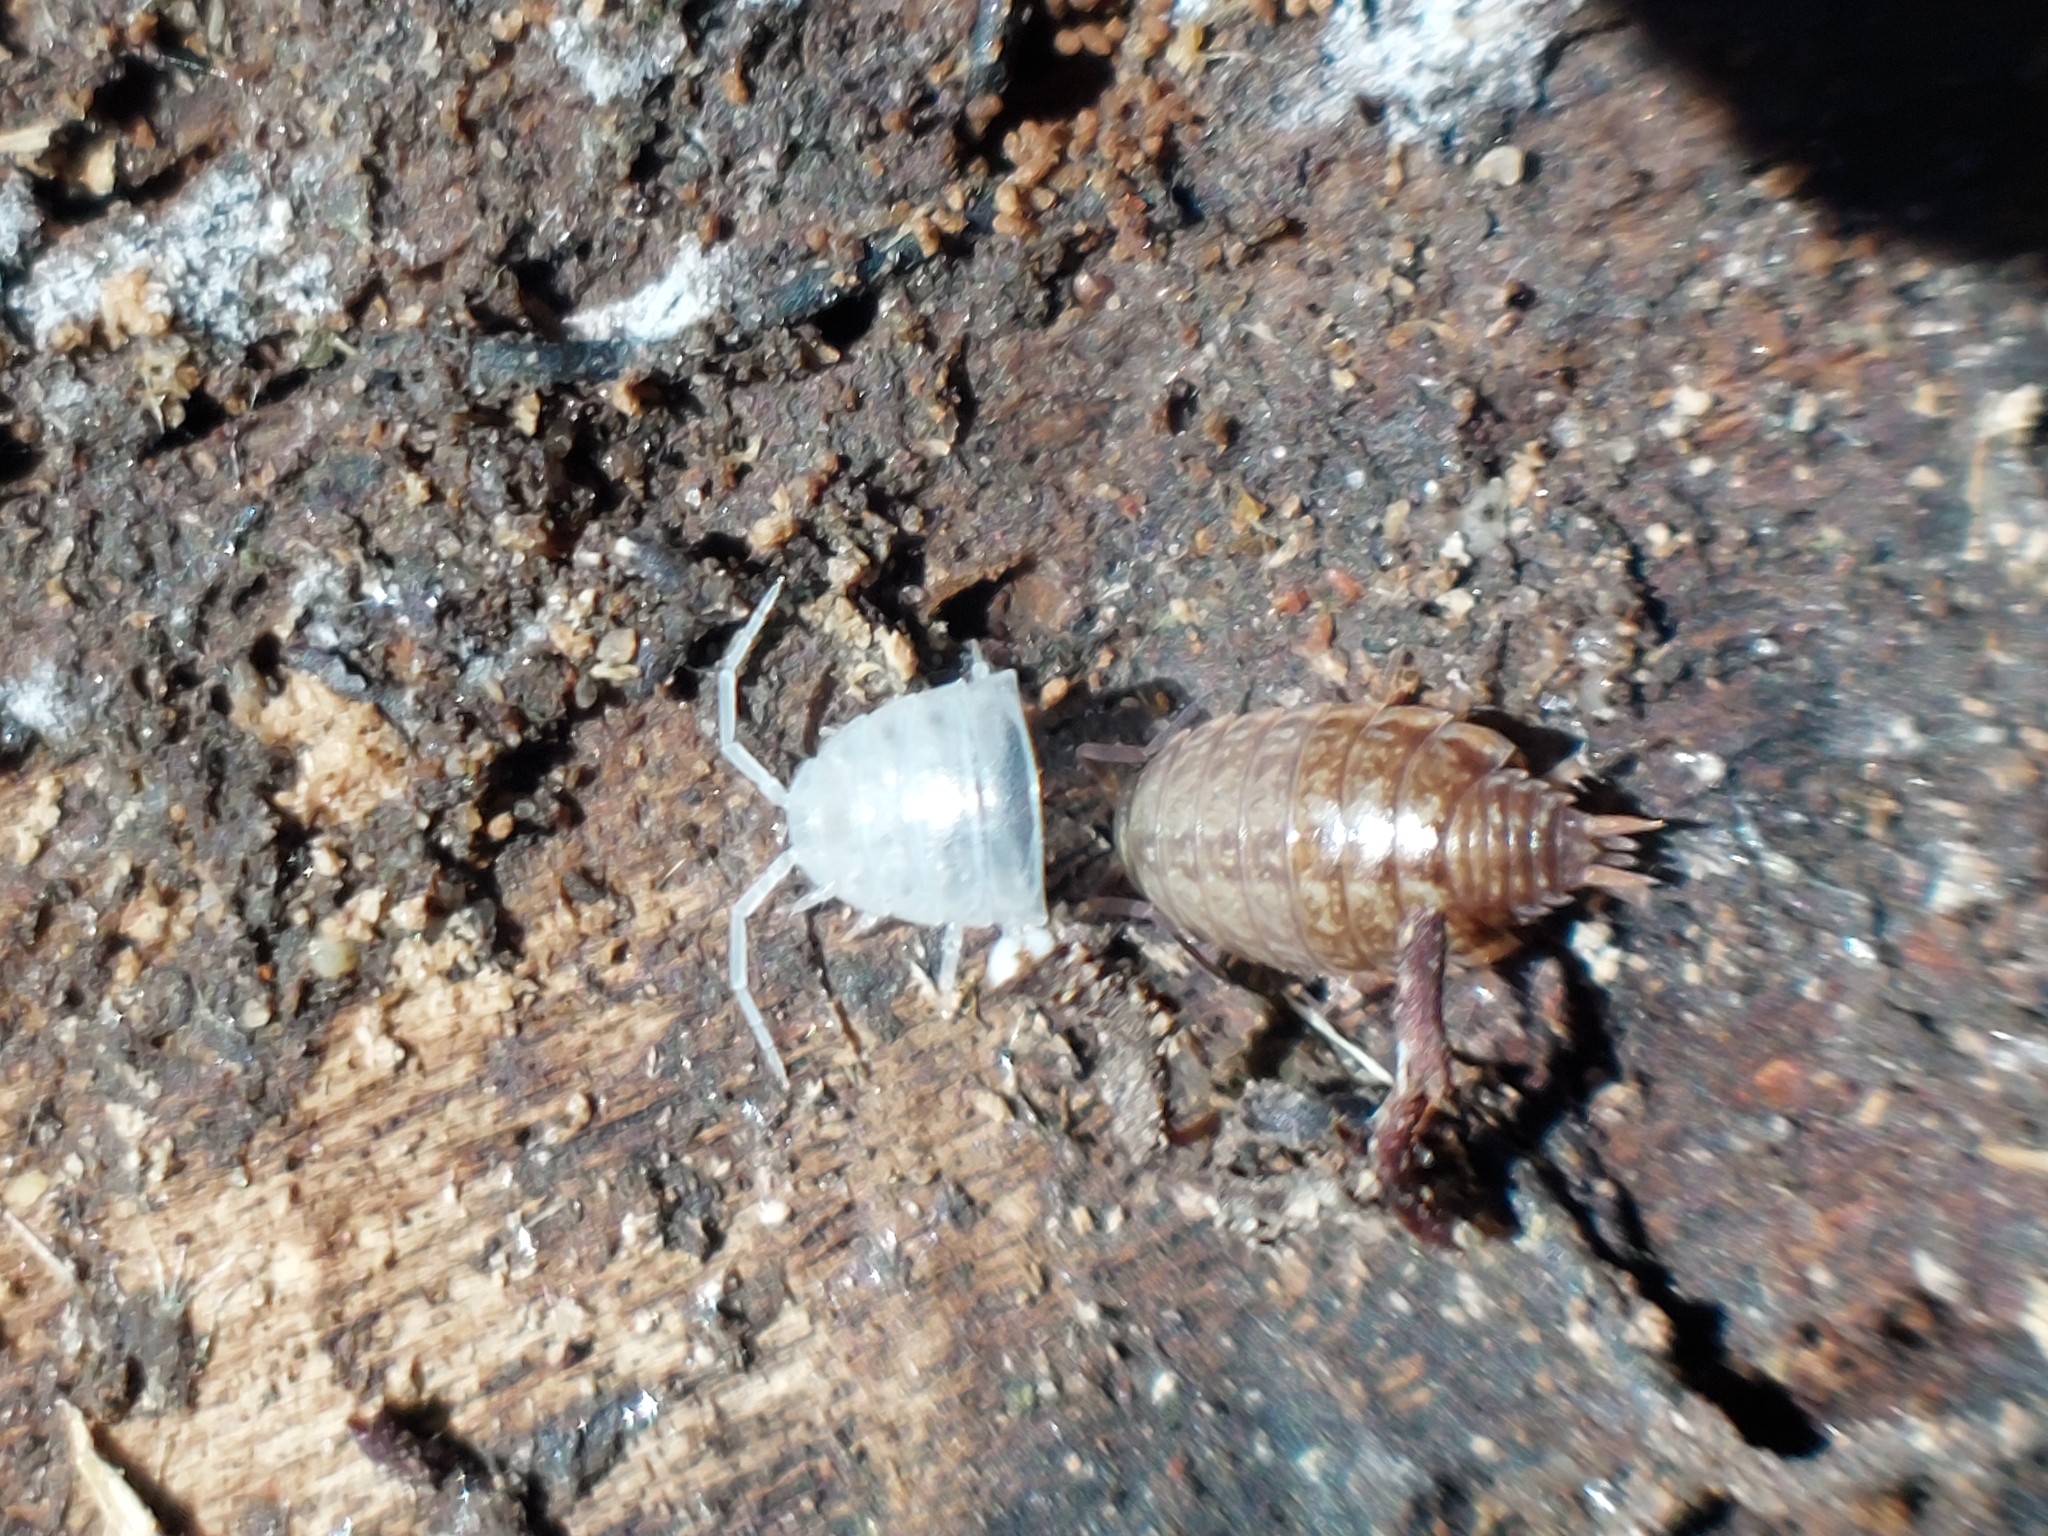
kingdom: Animalia
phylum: Arthropoda
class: Malacostraca
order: Isopoda
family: Philosciidae
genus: Philoscia
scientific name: Philoscia muscorum
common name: Common striped woodlouse
